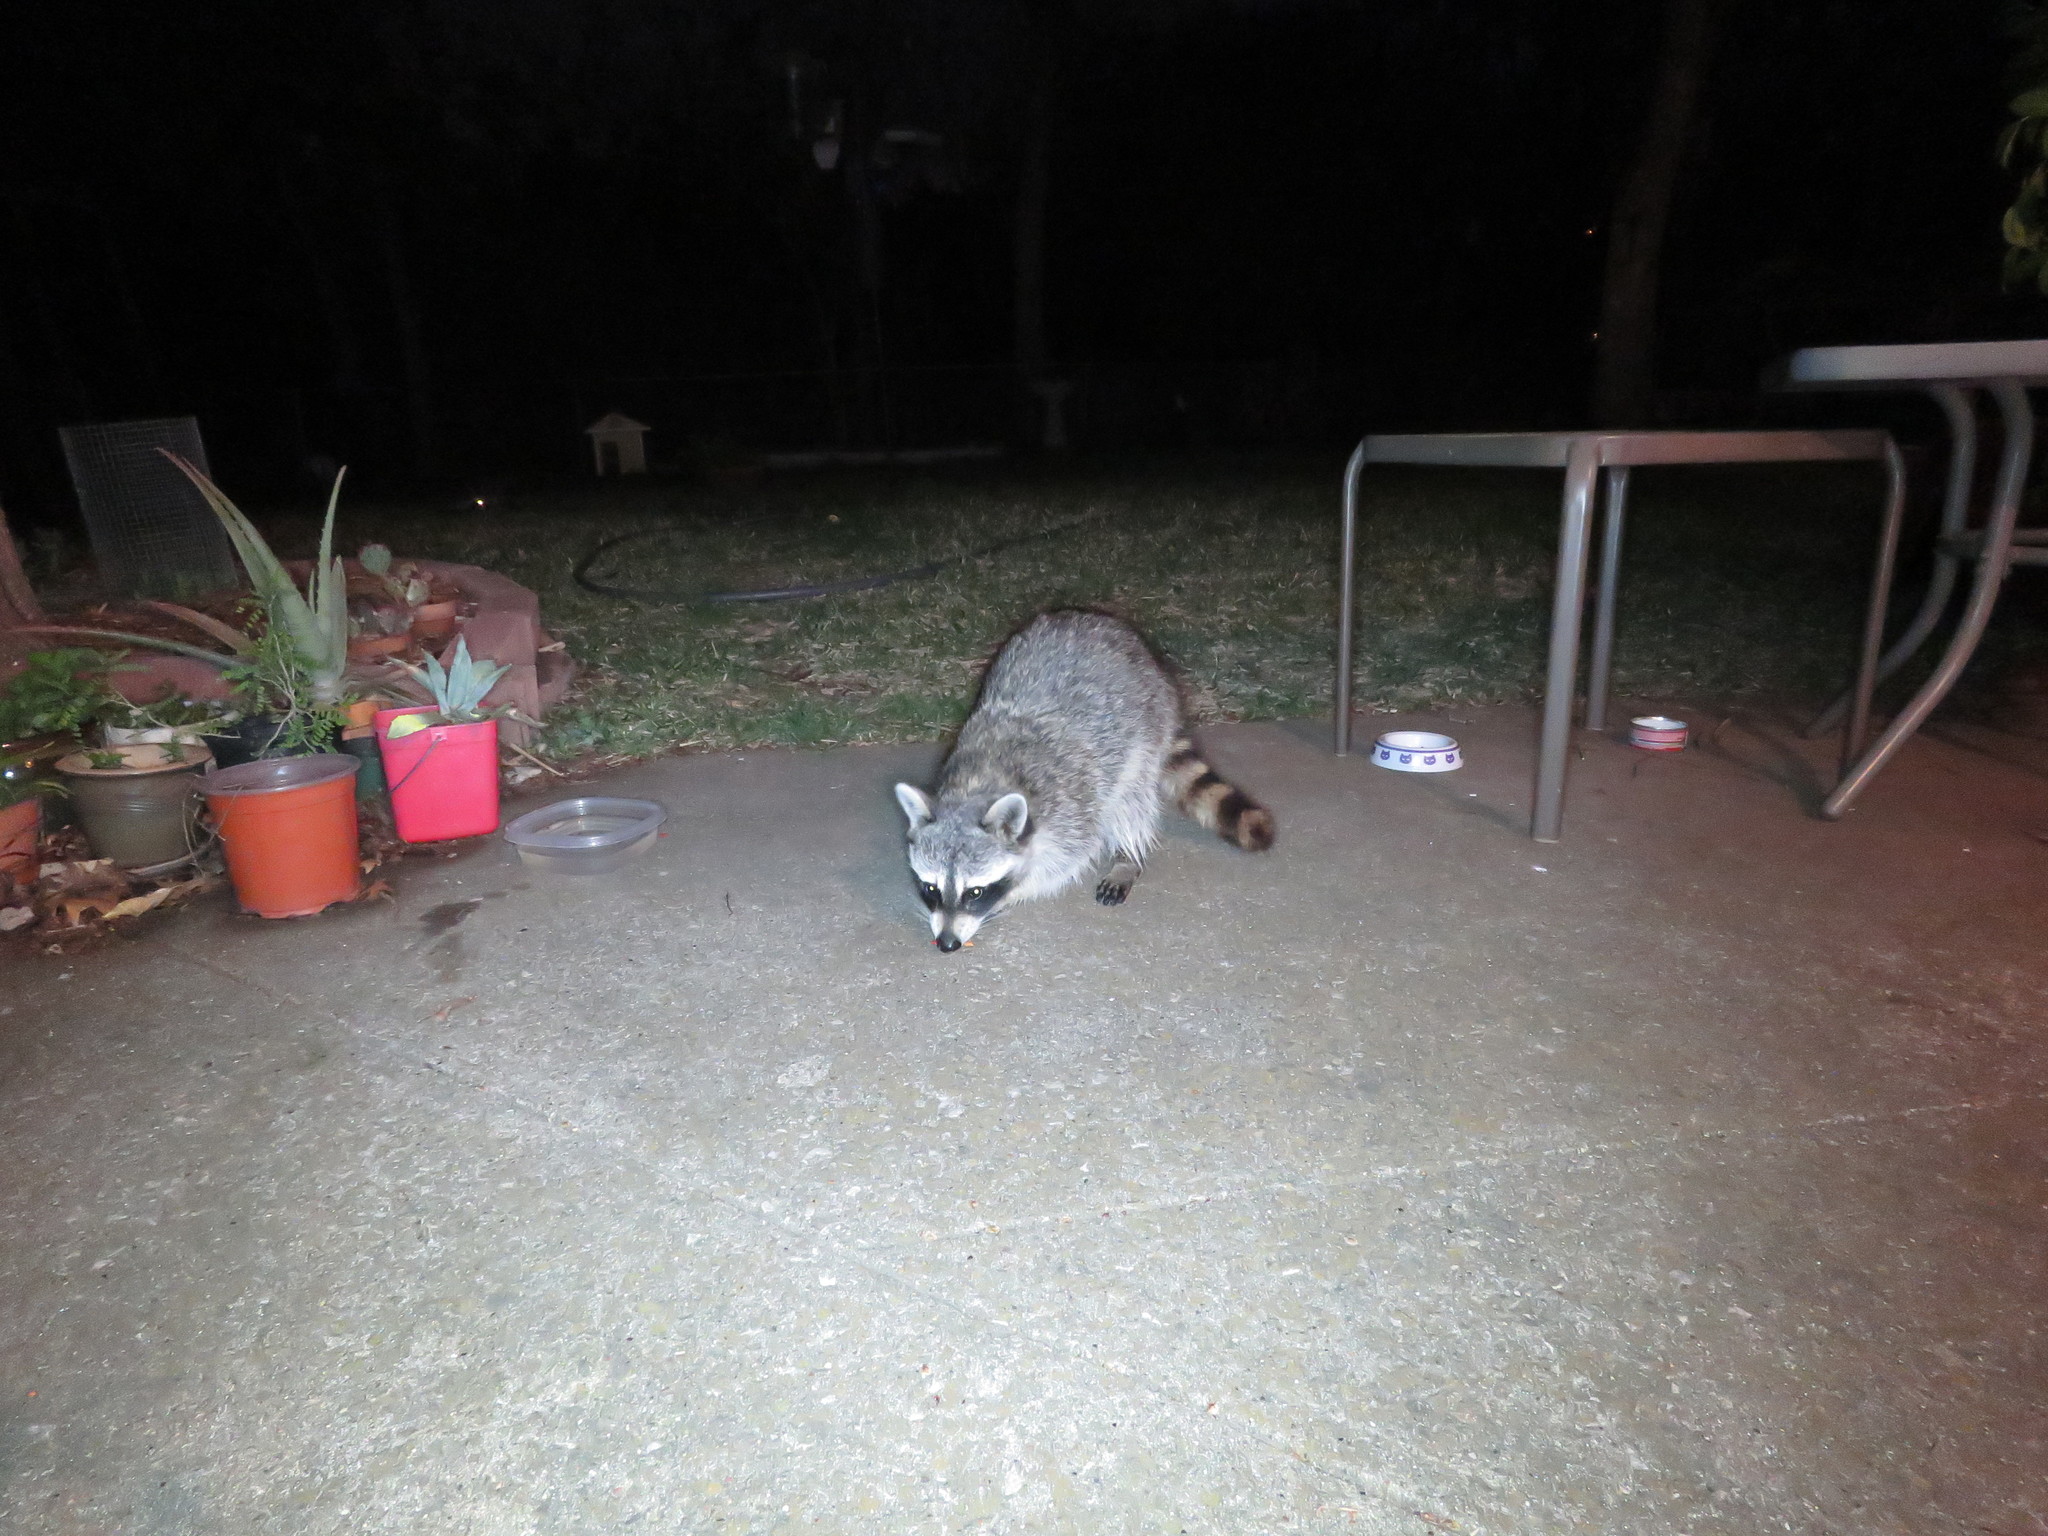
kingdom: Animalia
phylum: Chordata
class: Mammalia
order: Carnivora
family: Procyonidae
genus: Procyon
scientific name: Procyon lotor
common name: Raccoon
